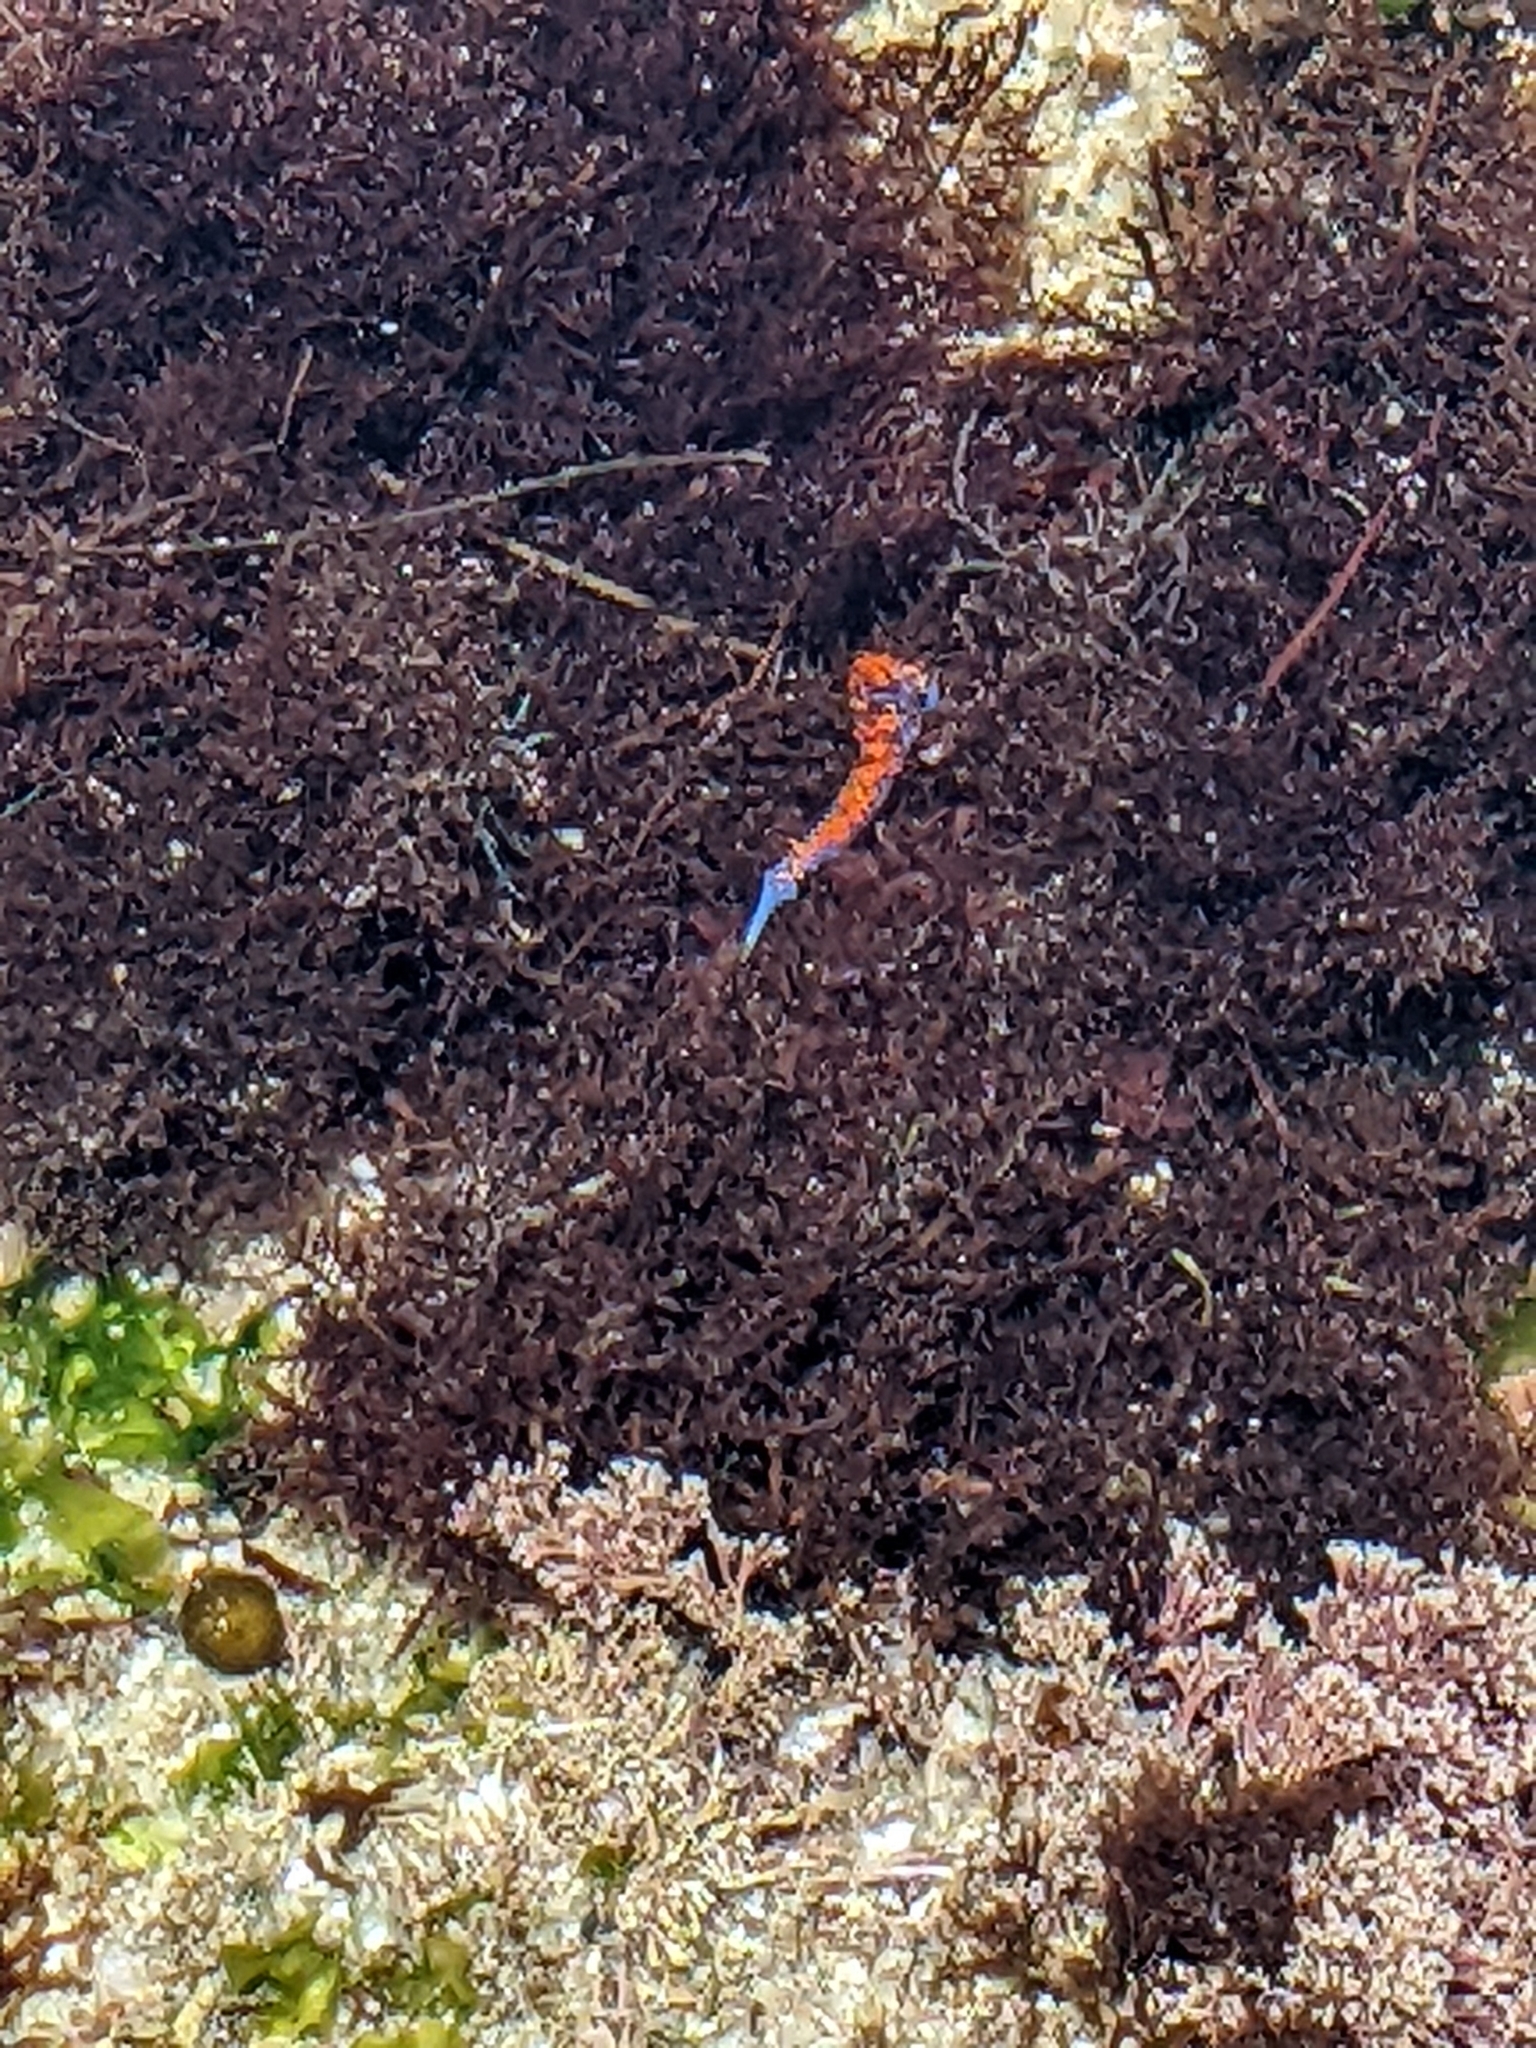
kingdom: Animalia
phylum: Mollusca
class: Gastropoda
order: Nudibranchia
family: Flabellinopsidae
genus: Flabellinopsis
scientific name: Flabellinopsis iodinea
